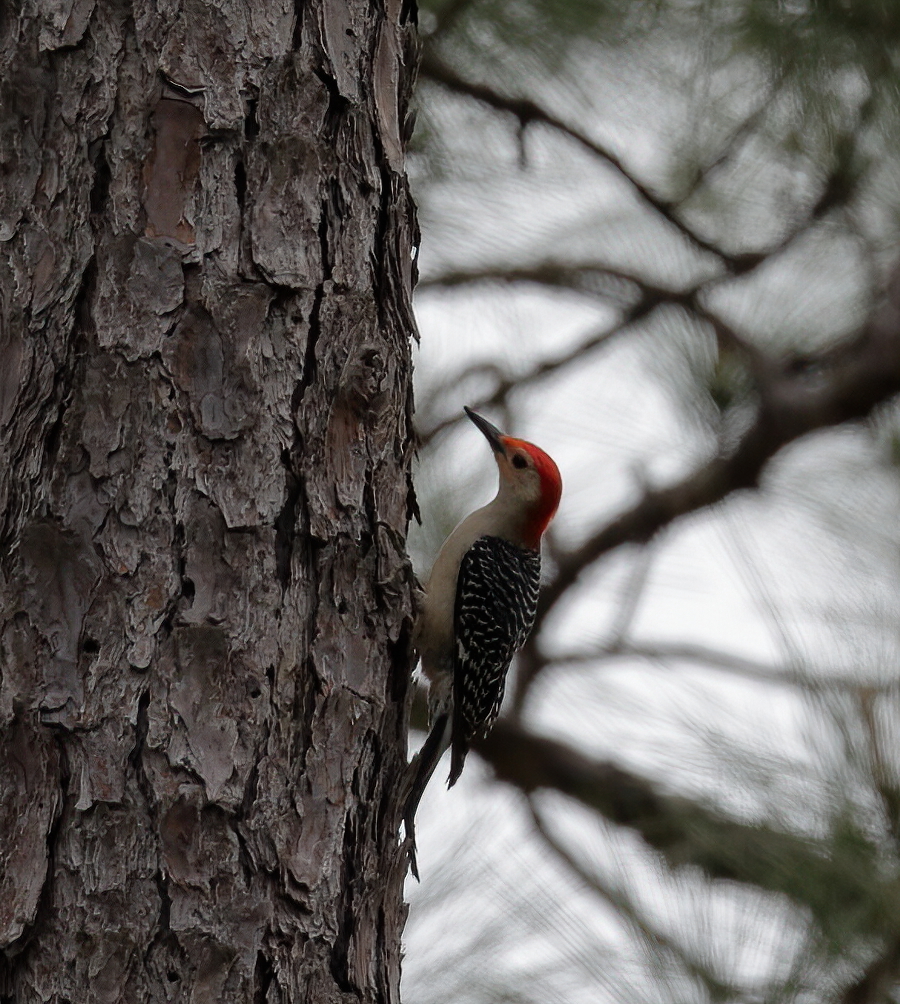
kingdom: Animalia
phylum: Chordata
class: Aves
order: Piciformes
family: Picidae
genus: Melanerpes
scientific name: Melanerpes carolinus
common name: Red-bellied woodpecker
